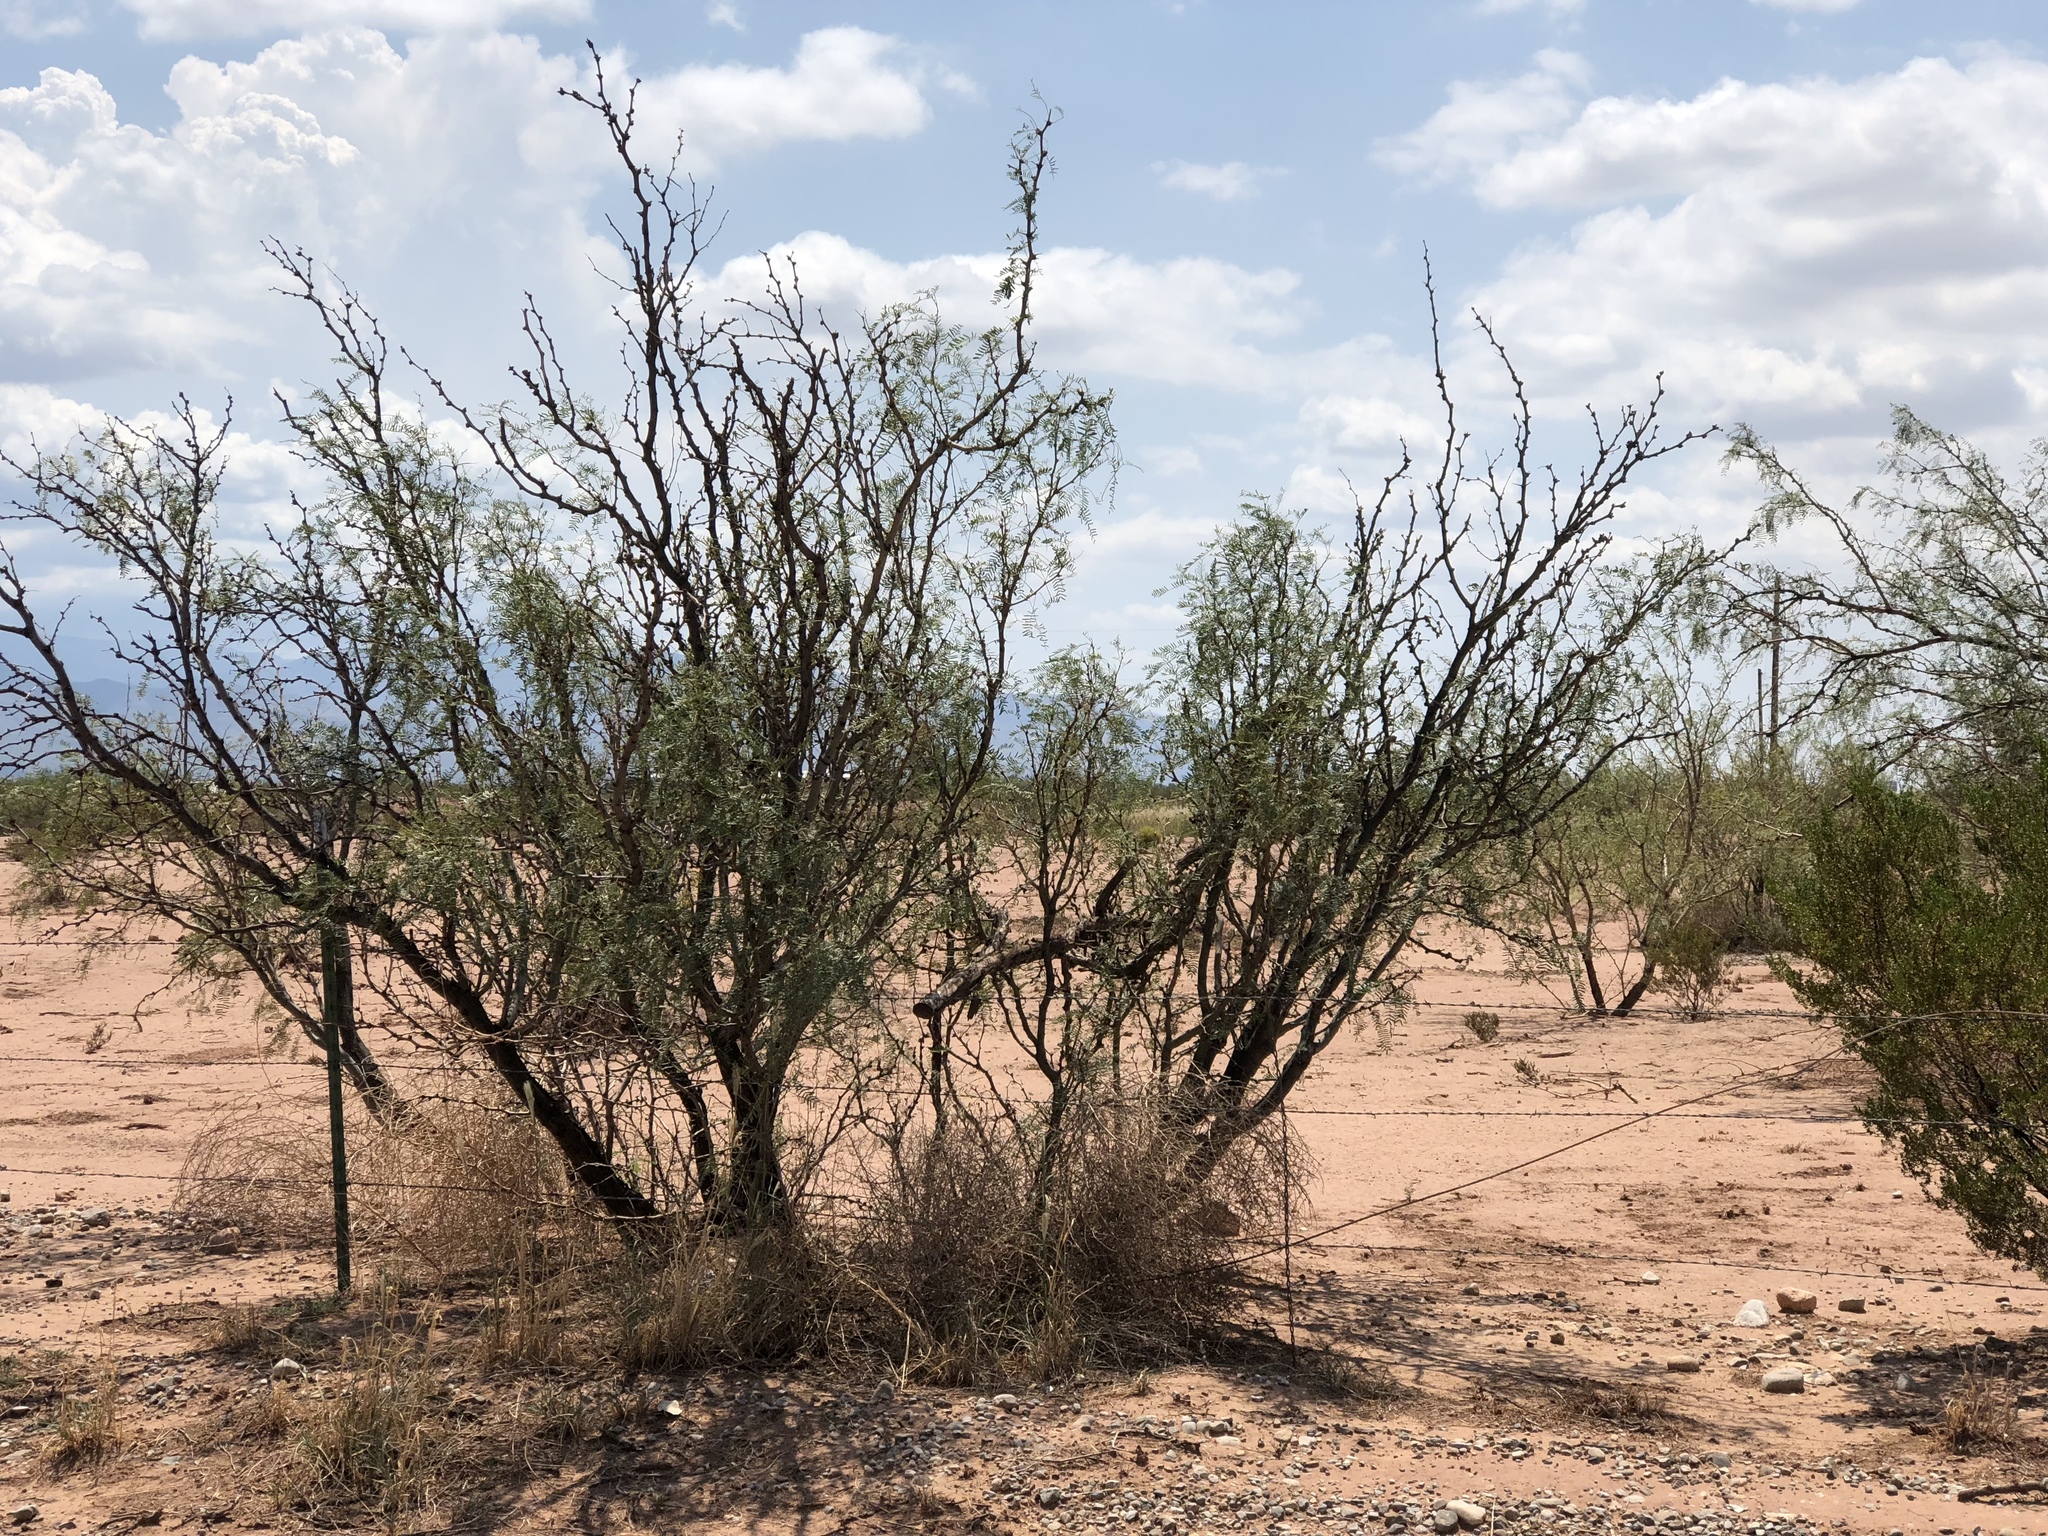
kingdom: Plantae
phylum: Tracheophyta
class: Magnoliopsida
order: Fabales
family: Fabaceae
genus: Prosopis
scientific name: Prosopis glandulosa
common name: Honey mesquite
